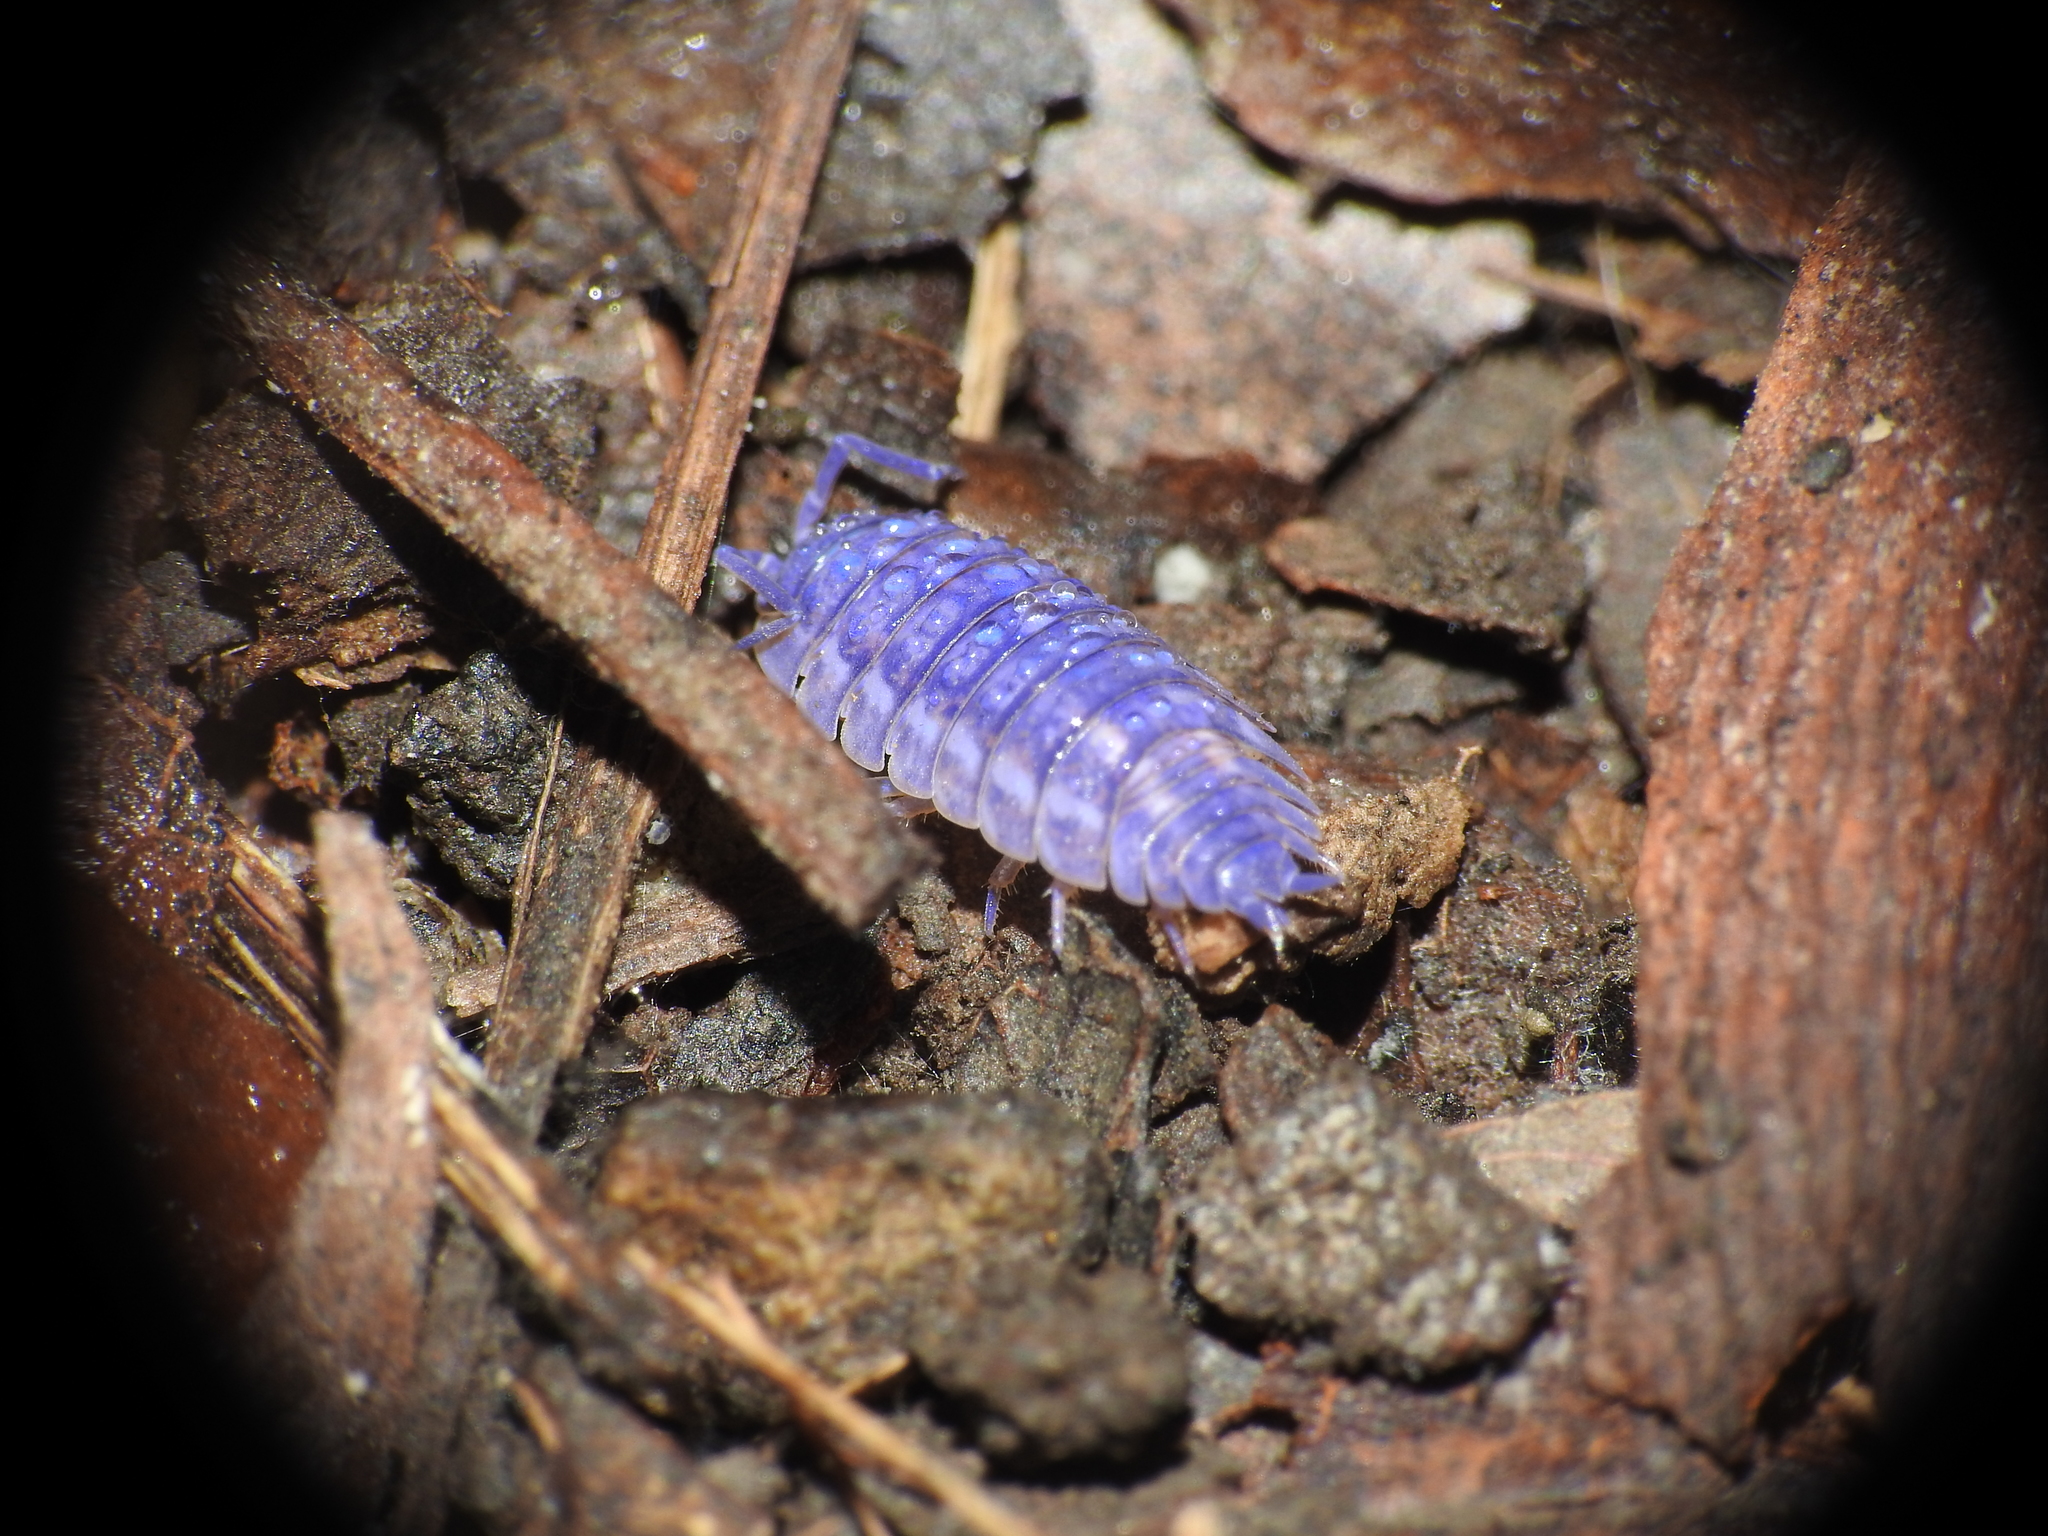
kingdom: Animalia
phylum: Arthropoda
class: Malacostraca
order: Isopoda
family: Trachelipodidae
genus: Trachelipus
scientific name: Trachelipus rathkii
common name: Isopod
